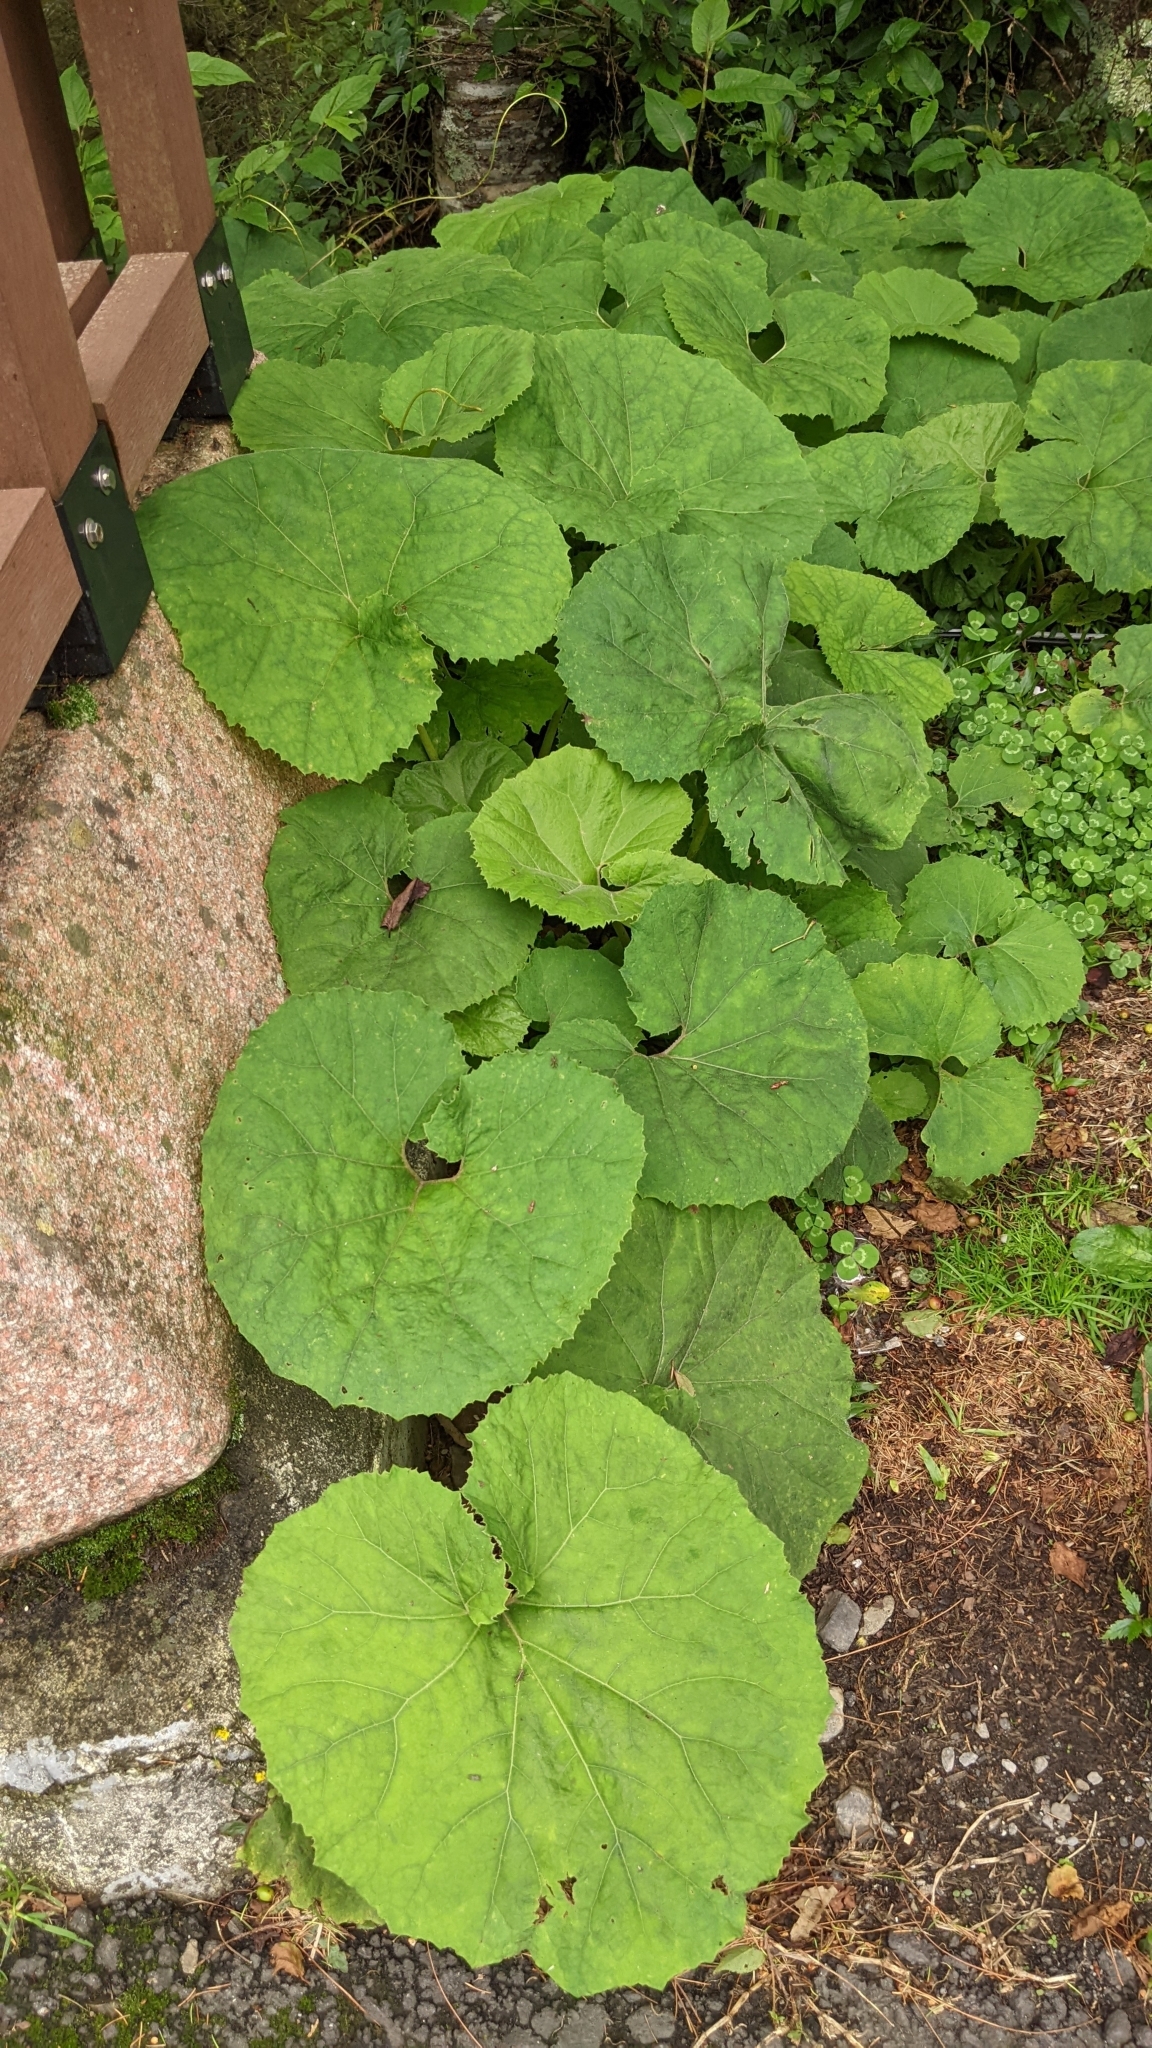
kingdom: Plantae
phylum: Tracheophyta
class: Magnoliopsida
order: Asterales
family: Asteraceae
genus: Petasites
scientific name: Petasites japonicus
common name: Giant butterbur
